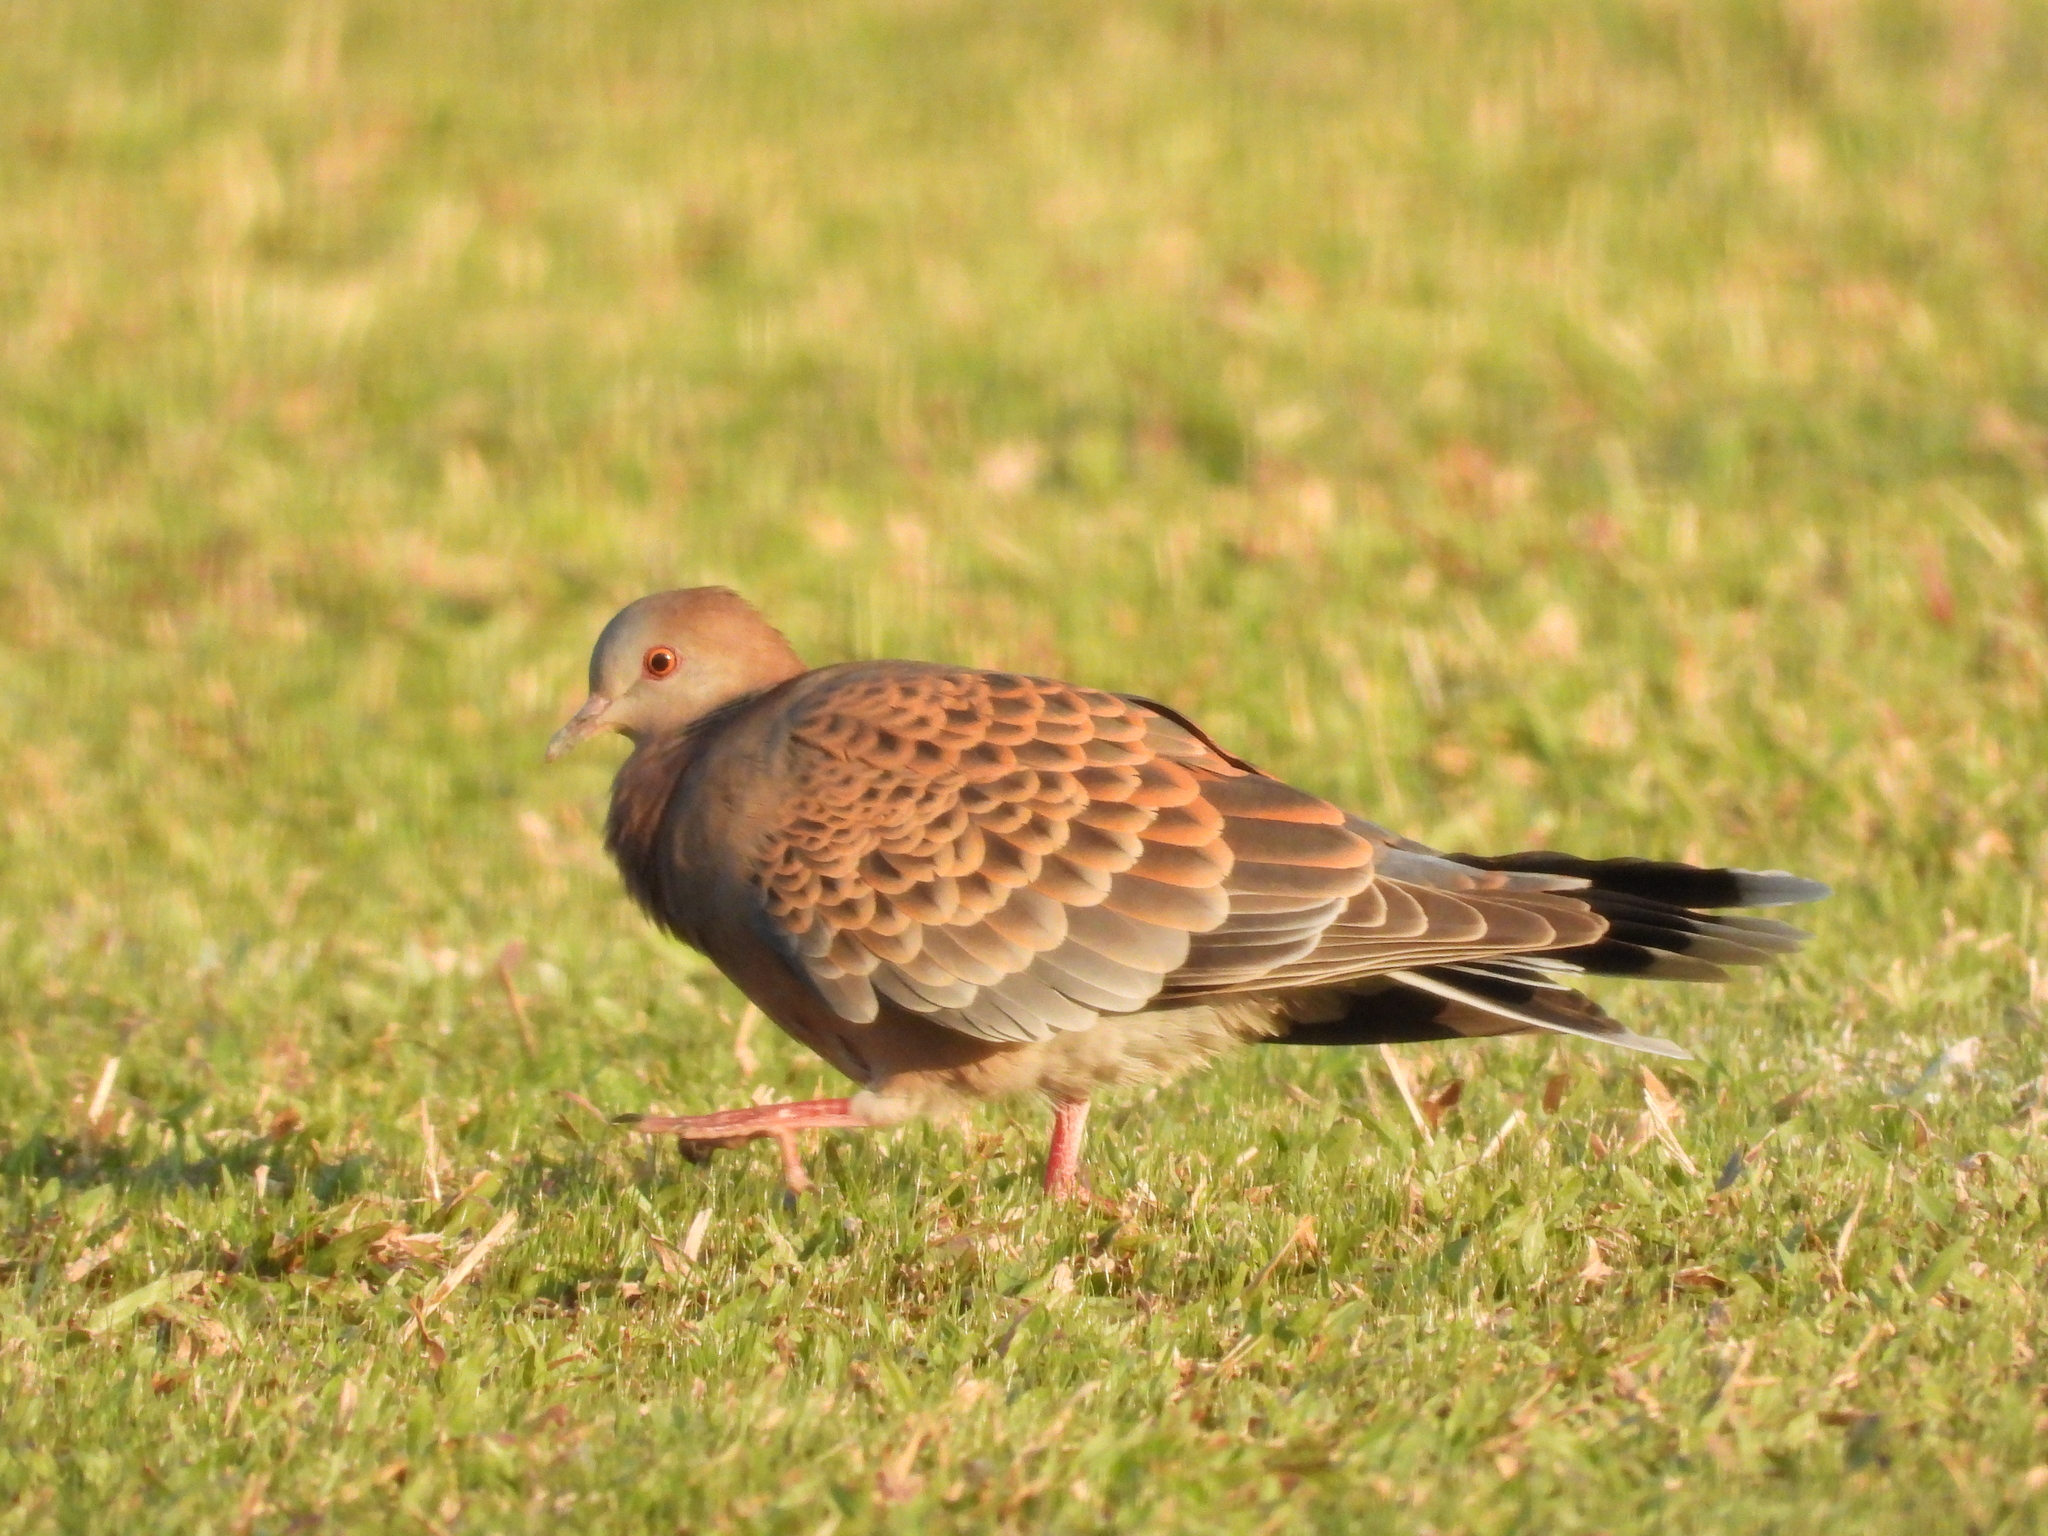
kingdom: Animalia
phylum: Chordata
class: Aves
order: Columbiformes
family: Columbidae
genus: Streptopelia
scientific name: Streptopelia orientalis
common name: Oriental turtle dove
